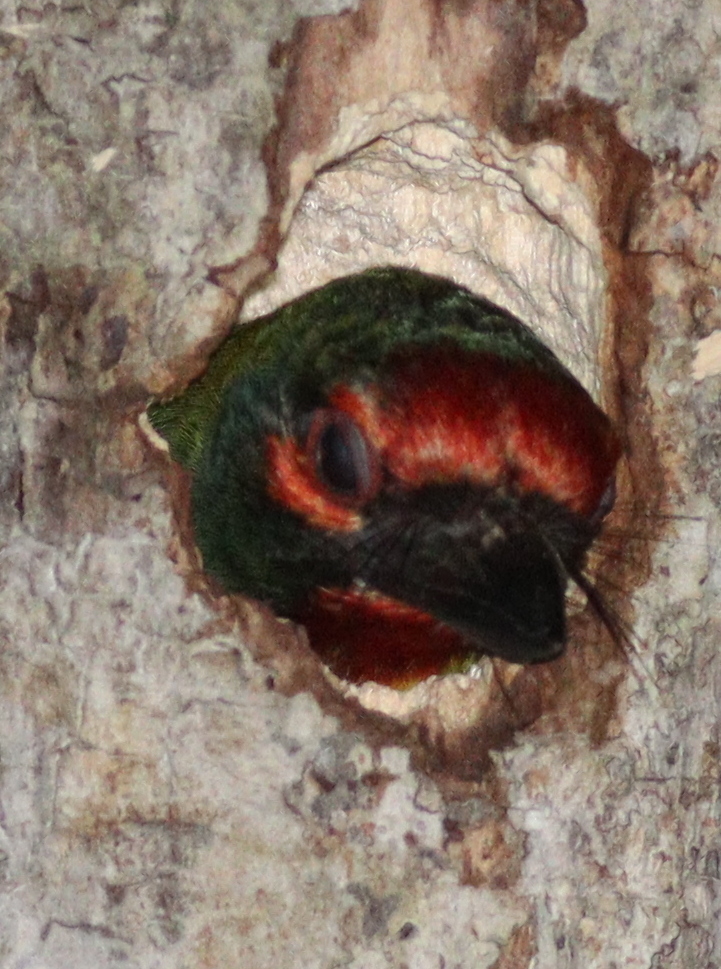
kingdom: Animalia
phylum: Chordata
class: Aves
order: Piciformes
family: Megalaimidae
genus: Psilopogon
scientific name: Psilopogon haemacephalus
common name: Coppersmith barbet
